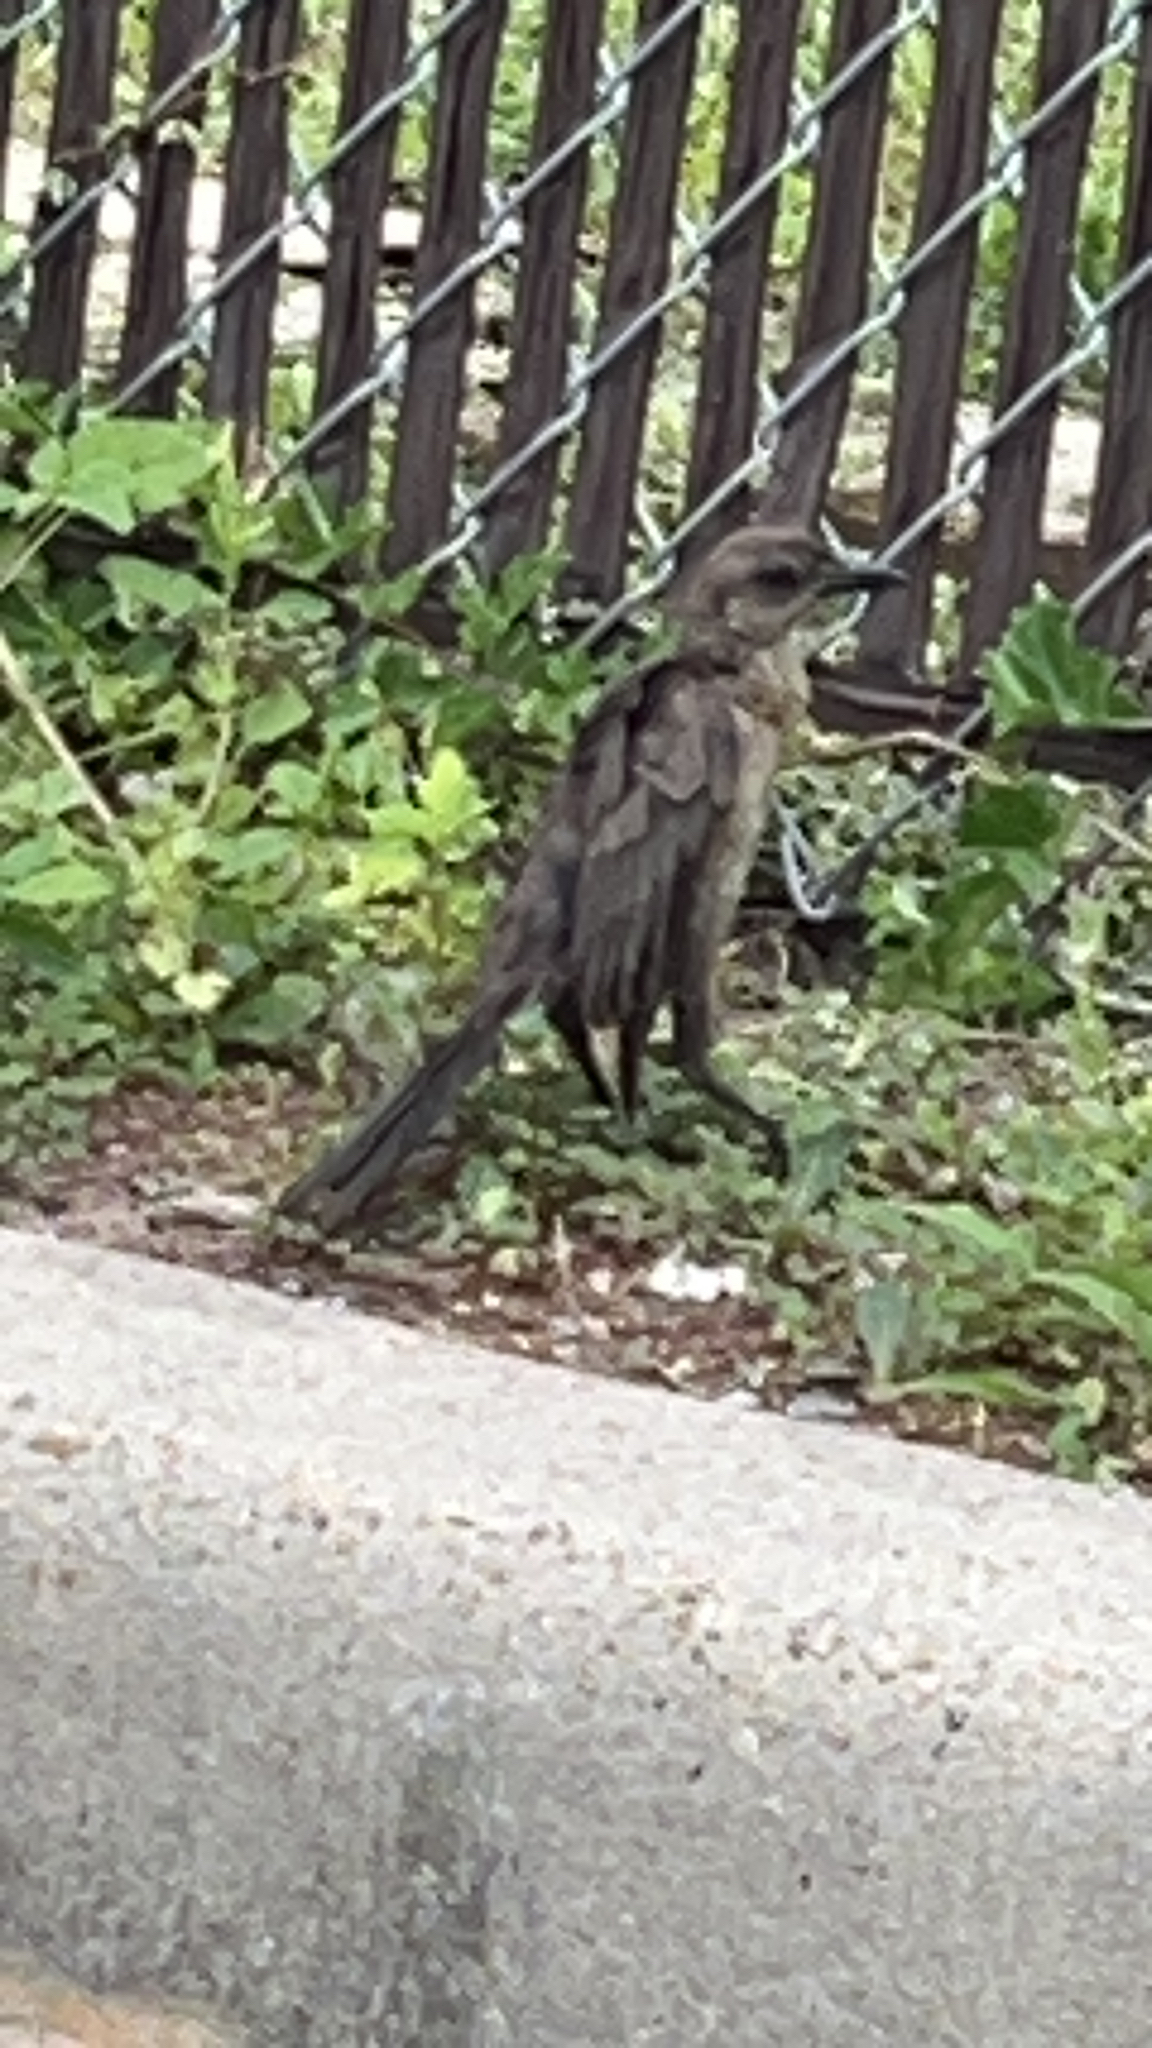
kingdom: Animalia
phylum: Chordata
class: Aves
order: Passeriformes
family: Icteridae
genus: Quiscalus
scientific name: Quiscalus mexicanus
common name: Great-tailed grackle
